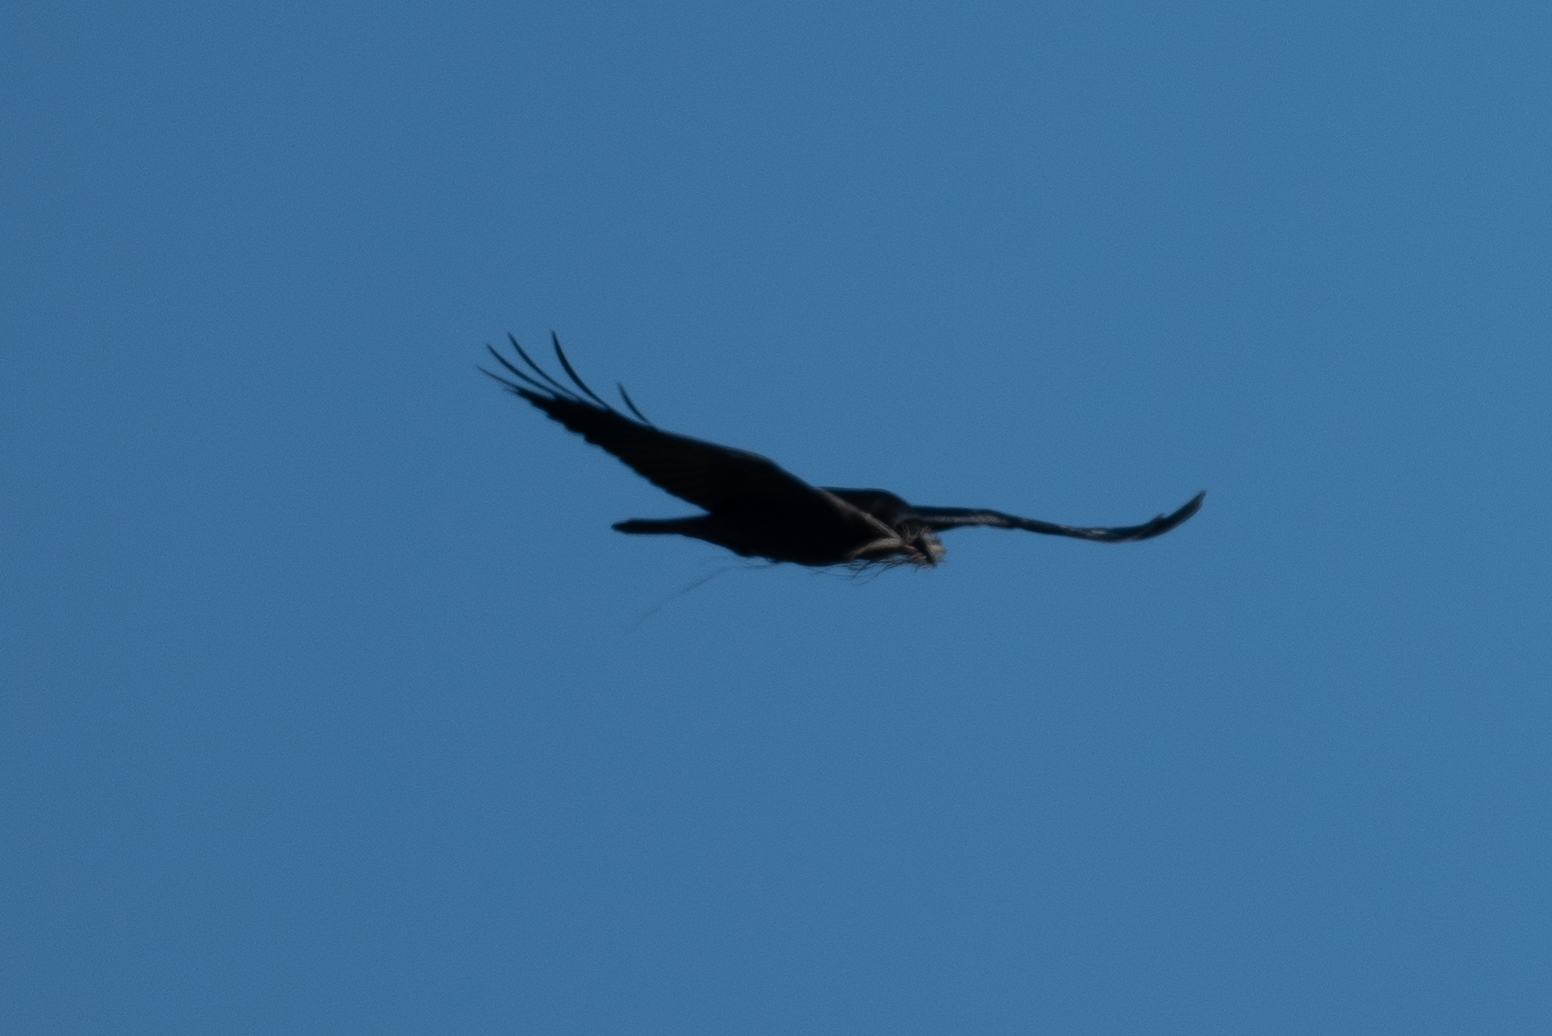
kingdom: Animalia
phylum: Chordata
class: Aves
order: Passeriformes
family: Corvidae
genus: Corvus
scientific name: Corvus corax
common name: Common raven
